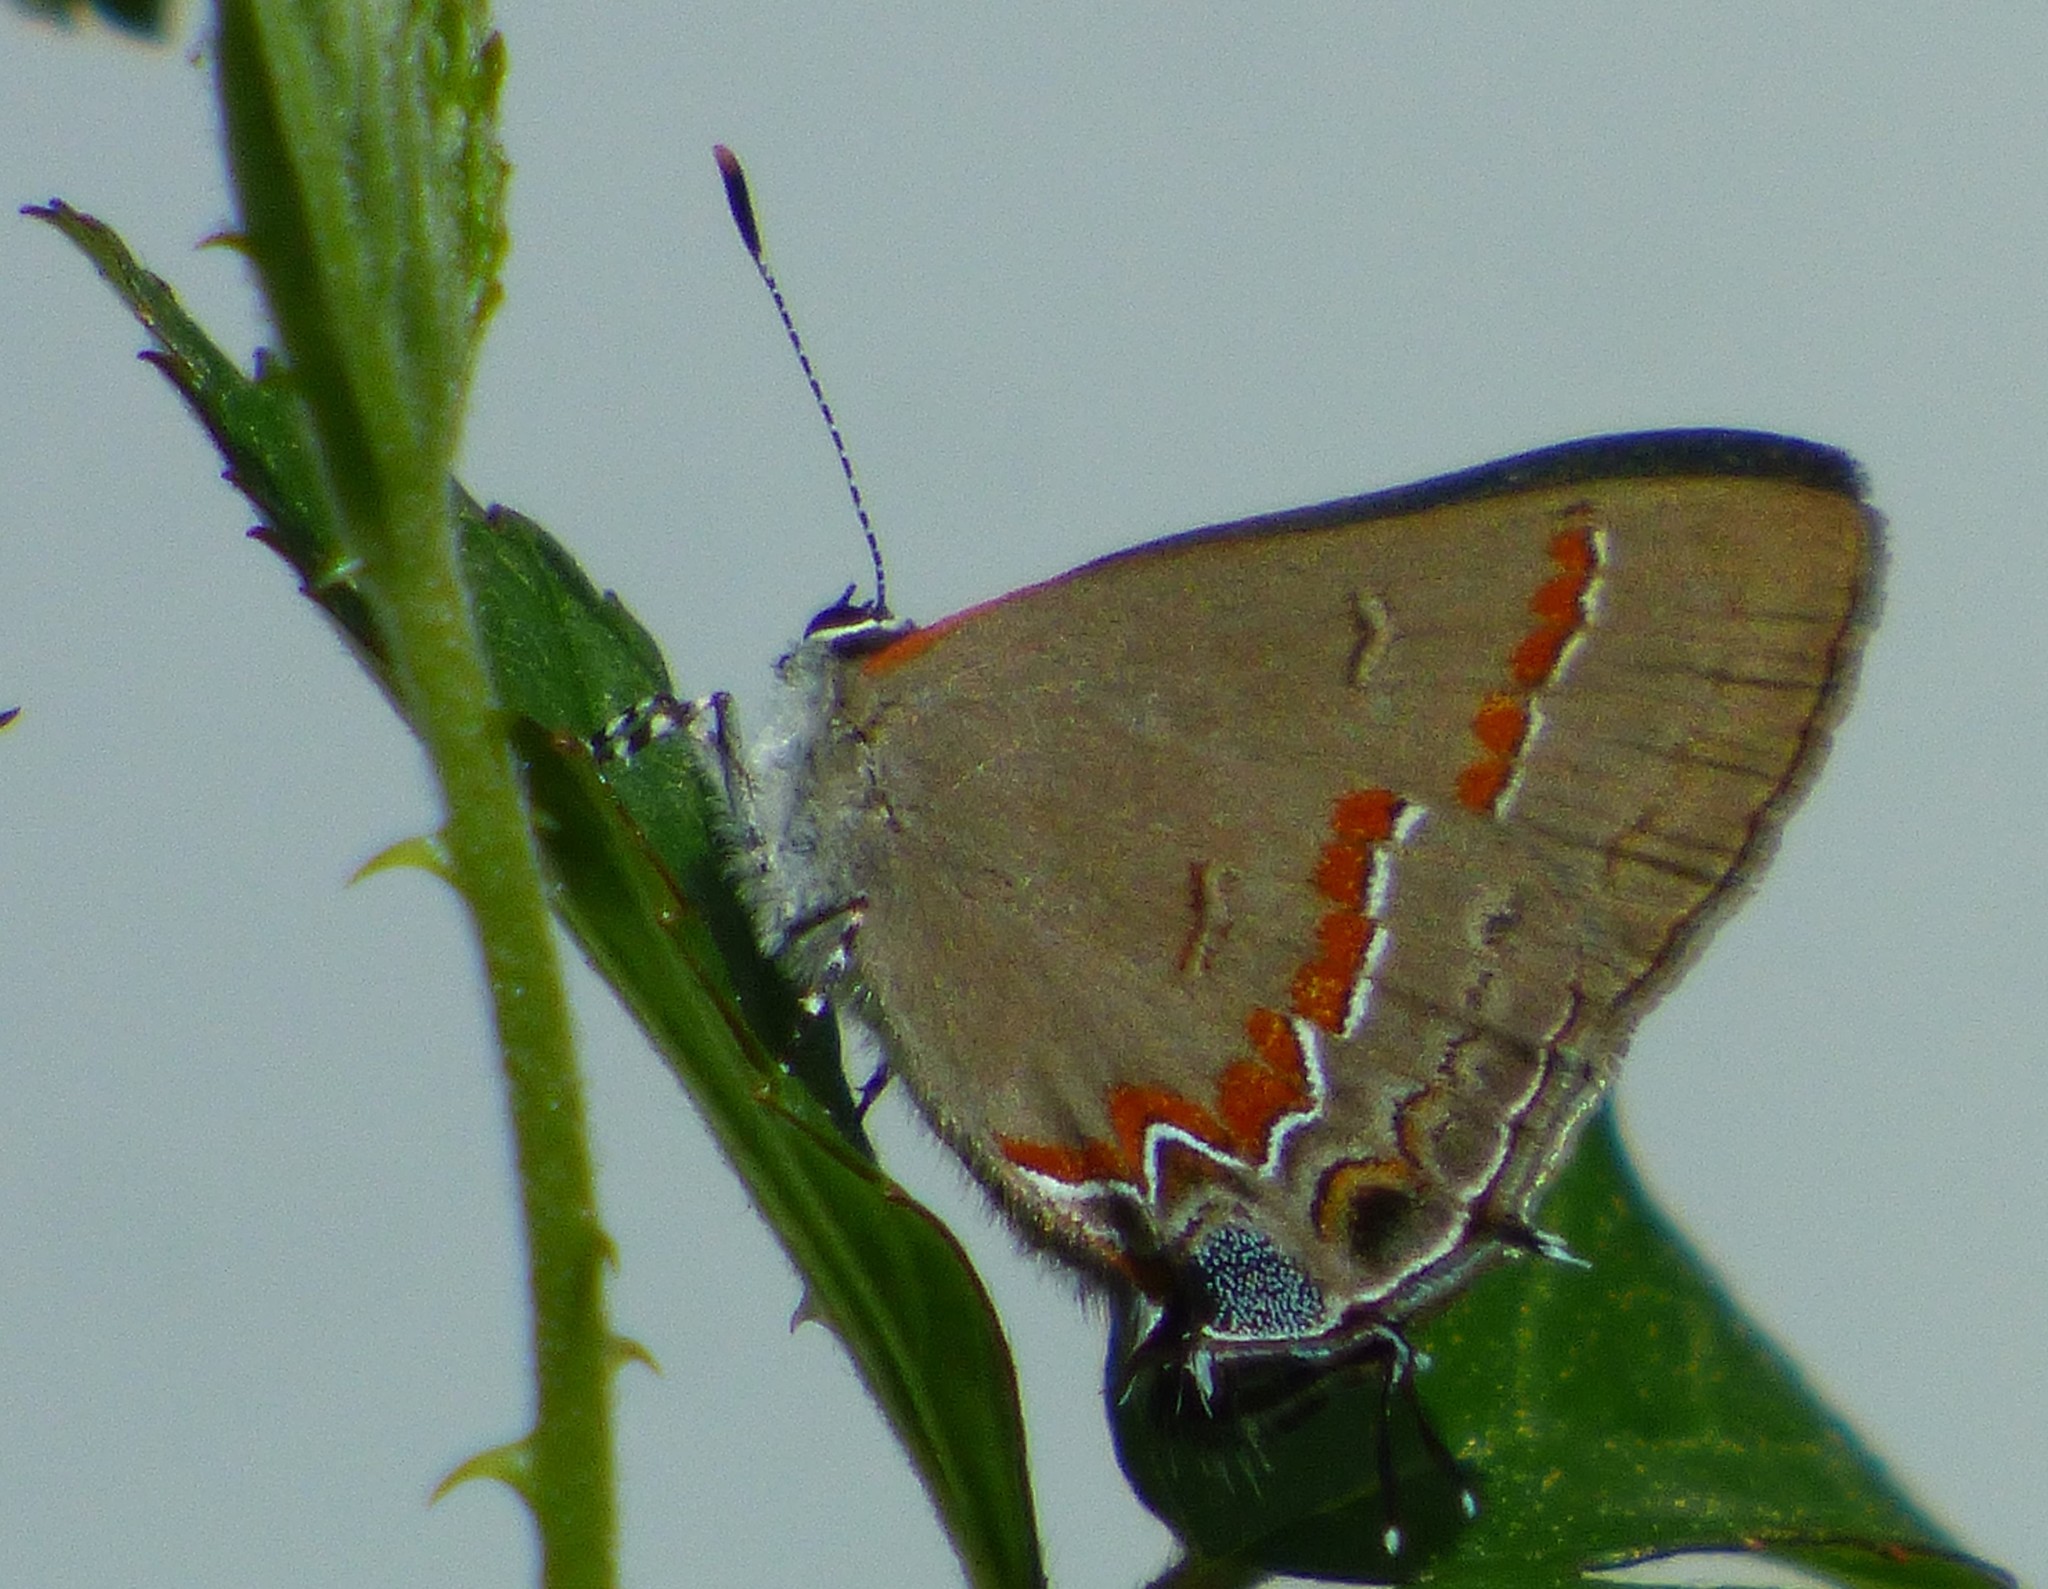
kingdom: Animalia
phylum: Arthropoda
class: Insecta
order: Lepidoptera
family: Lycaenidae
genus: Calycopis
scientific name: Calycopis cecrops
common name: Red-banded hairstreak
